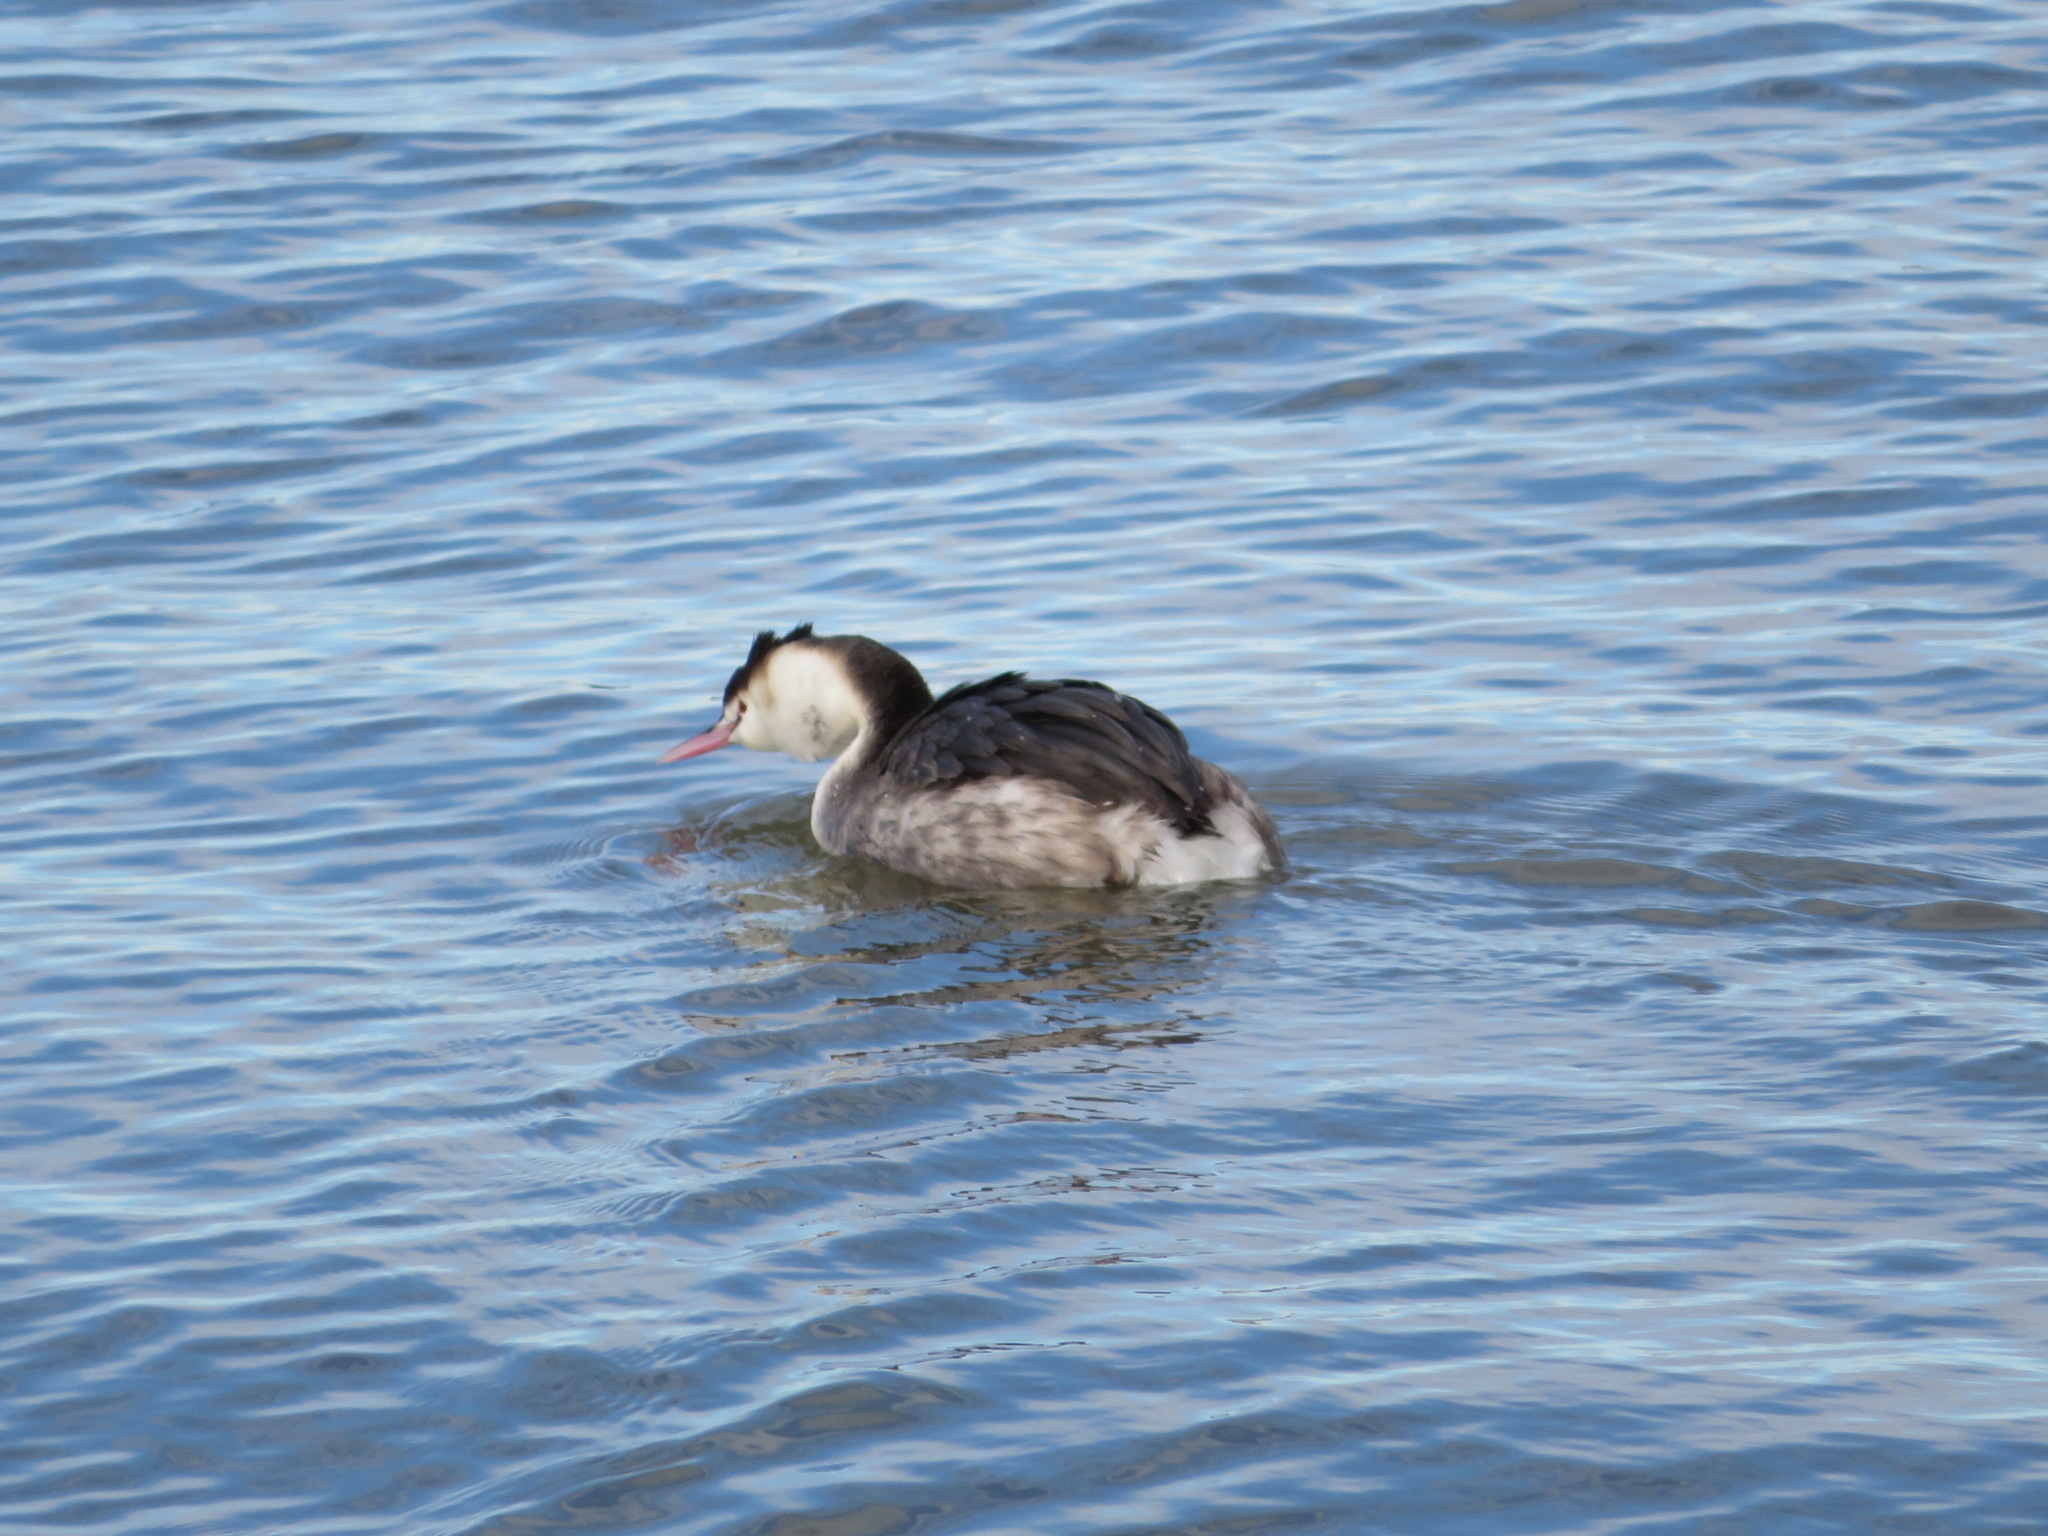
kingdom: Animalia
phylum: Chordata
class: Aves
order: Podicipediformes
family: Podicipedidae
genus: Podiceps
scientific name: Podiceps cristatus
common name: Great crested grebe
